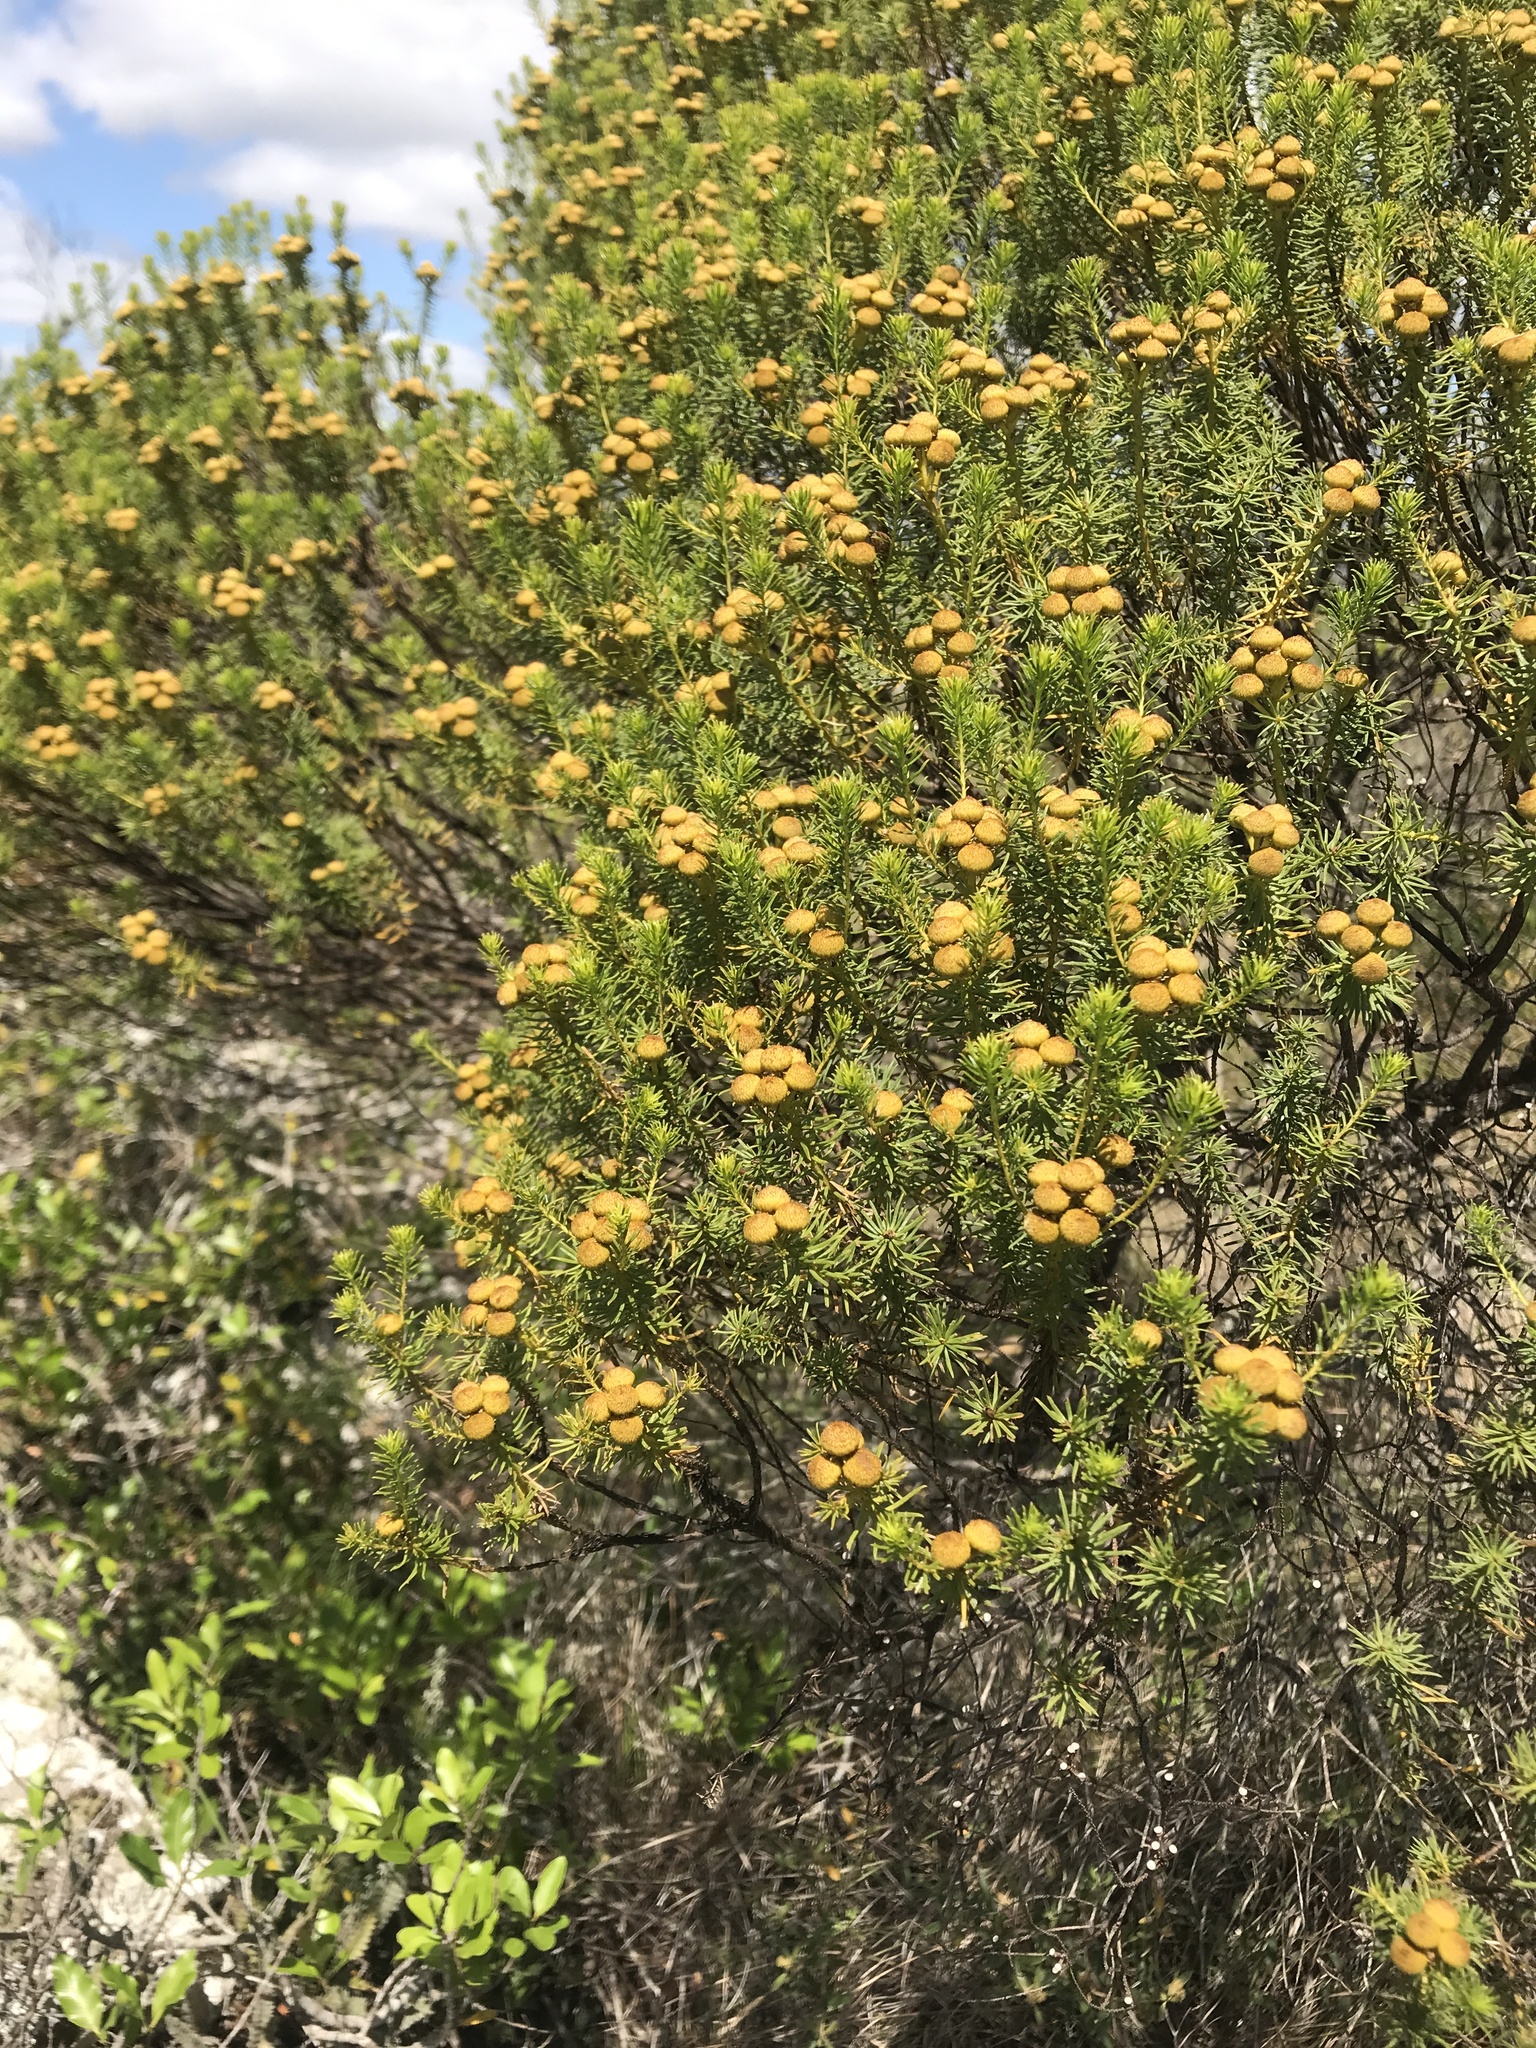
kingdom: Plantae
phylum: Tracheophyta
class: Magnoliopsida
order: Asterales
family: Asteraceae
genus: Baccharis
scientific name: Baccharis aliena
